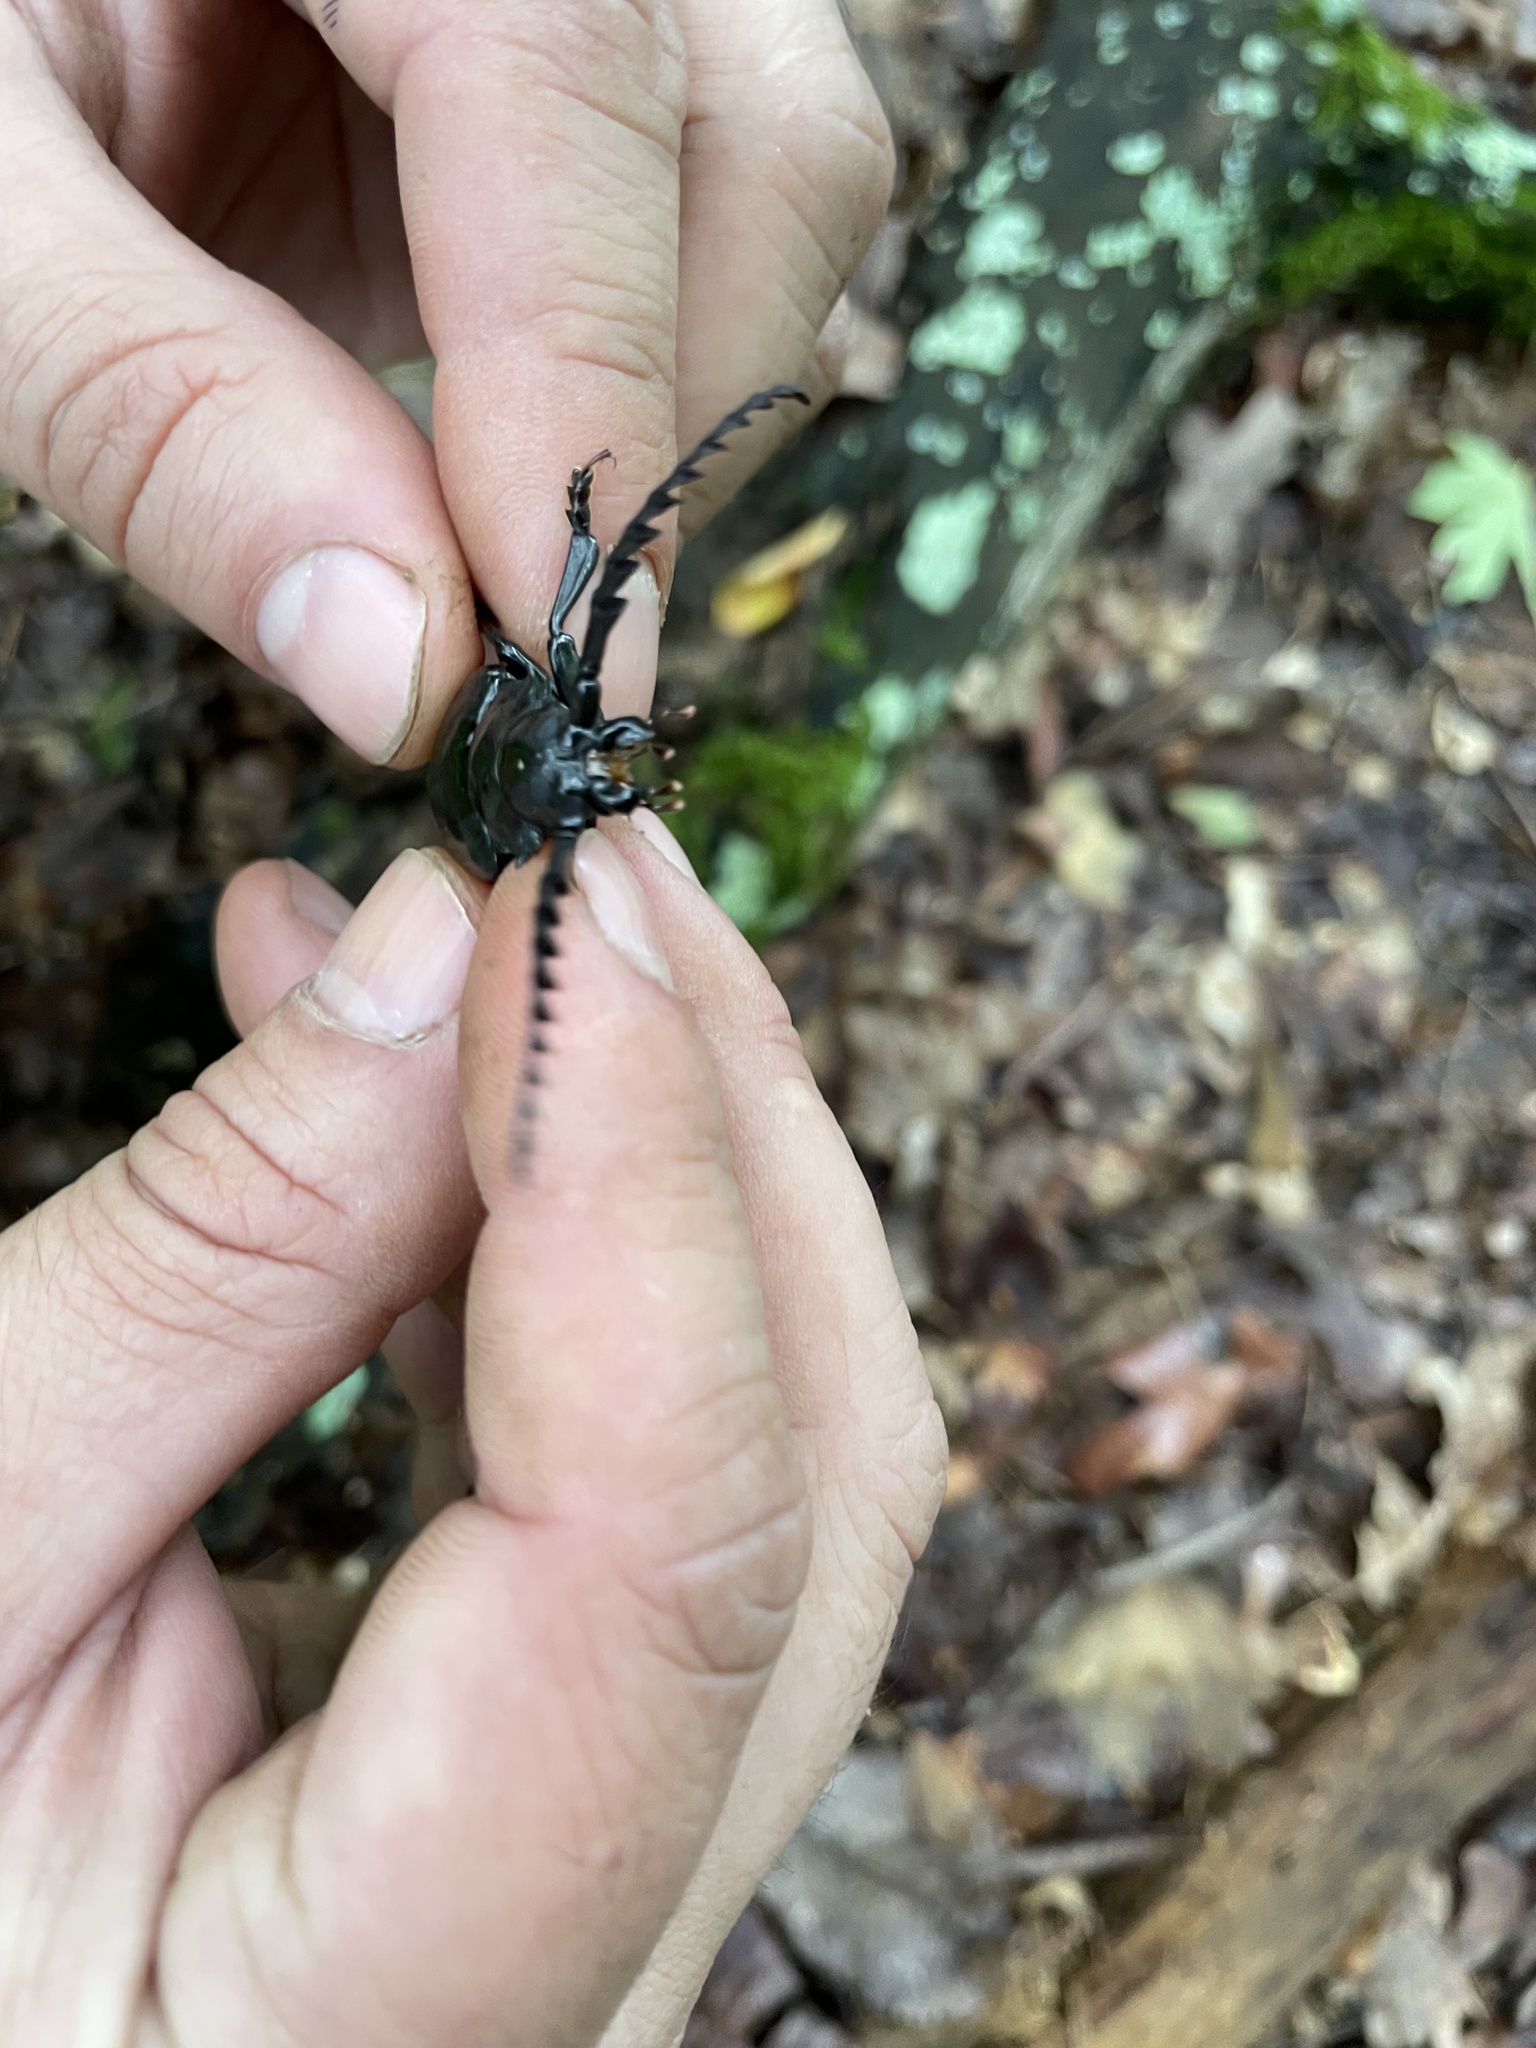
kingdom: Animalia
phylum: Arthropoda
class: Insecta
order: Coleoptera
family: Cerambycidae
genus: Prionus
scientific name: Prionus laticollis
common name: Broad necked prionus
